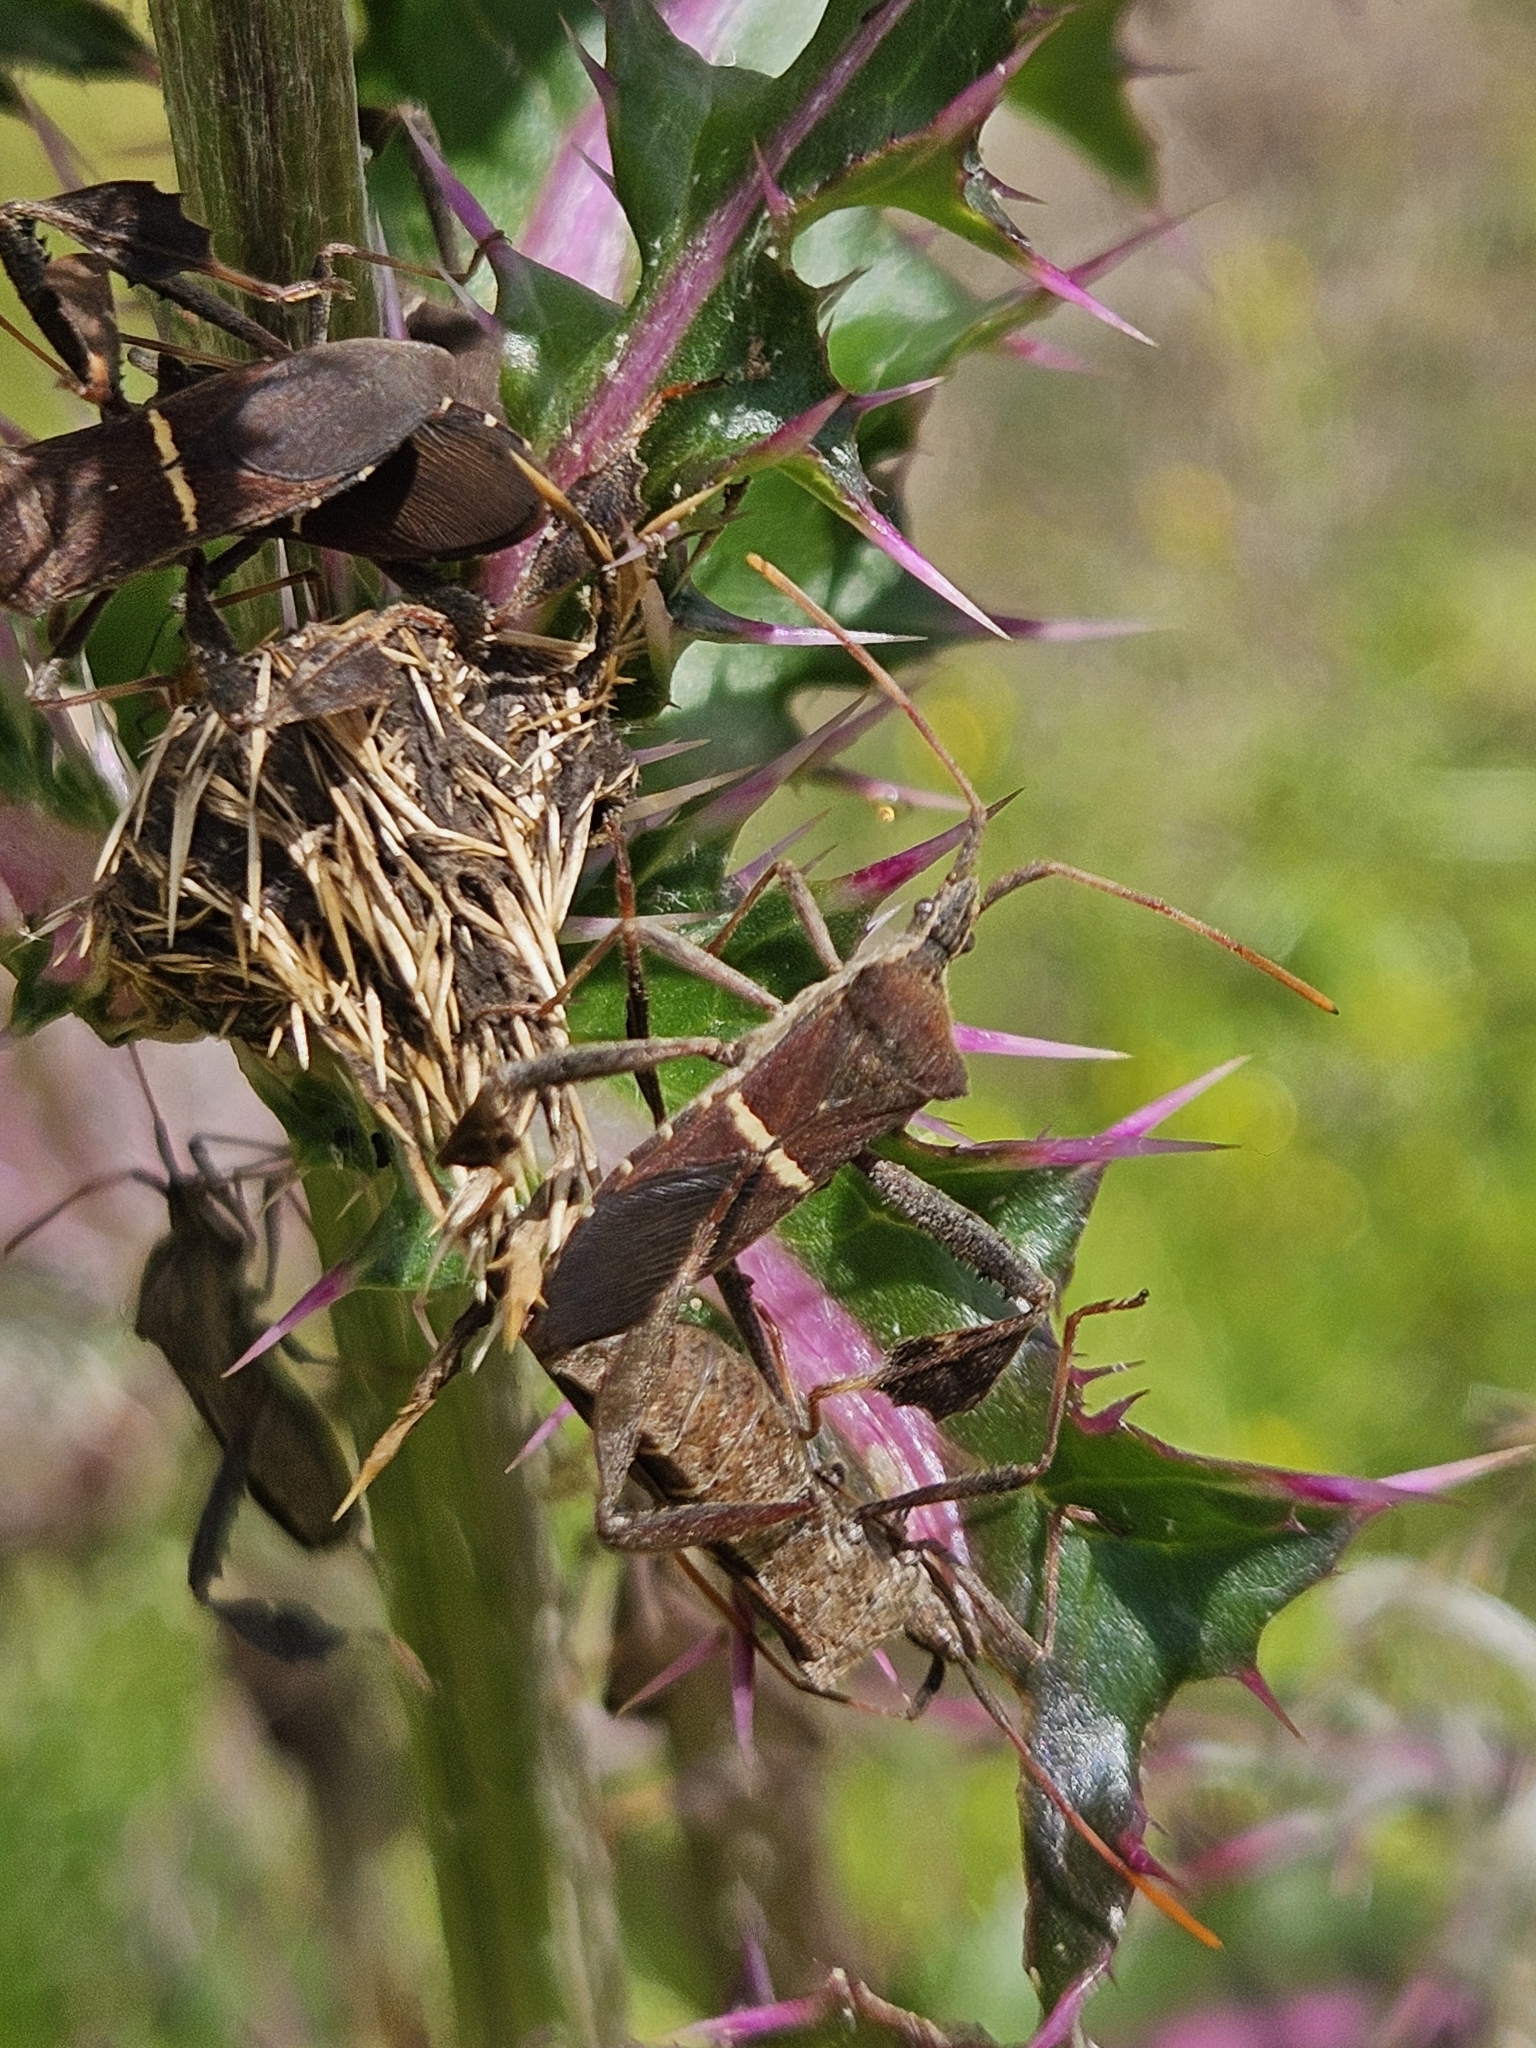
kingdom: Animalia
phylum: Arthropoda
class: Insecta
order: Hemiptera
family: Coreidae
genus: Leptoglossus
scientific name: Leptoglossus phyllopus
